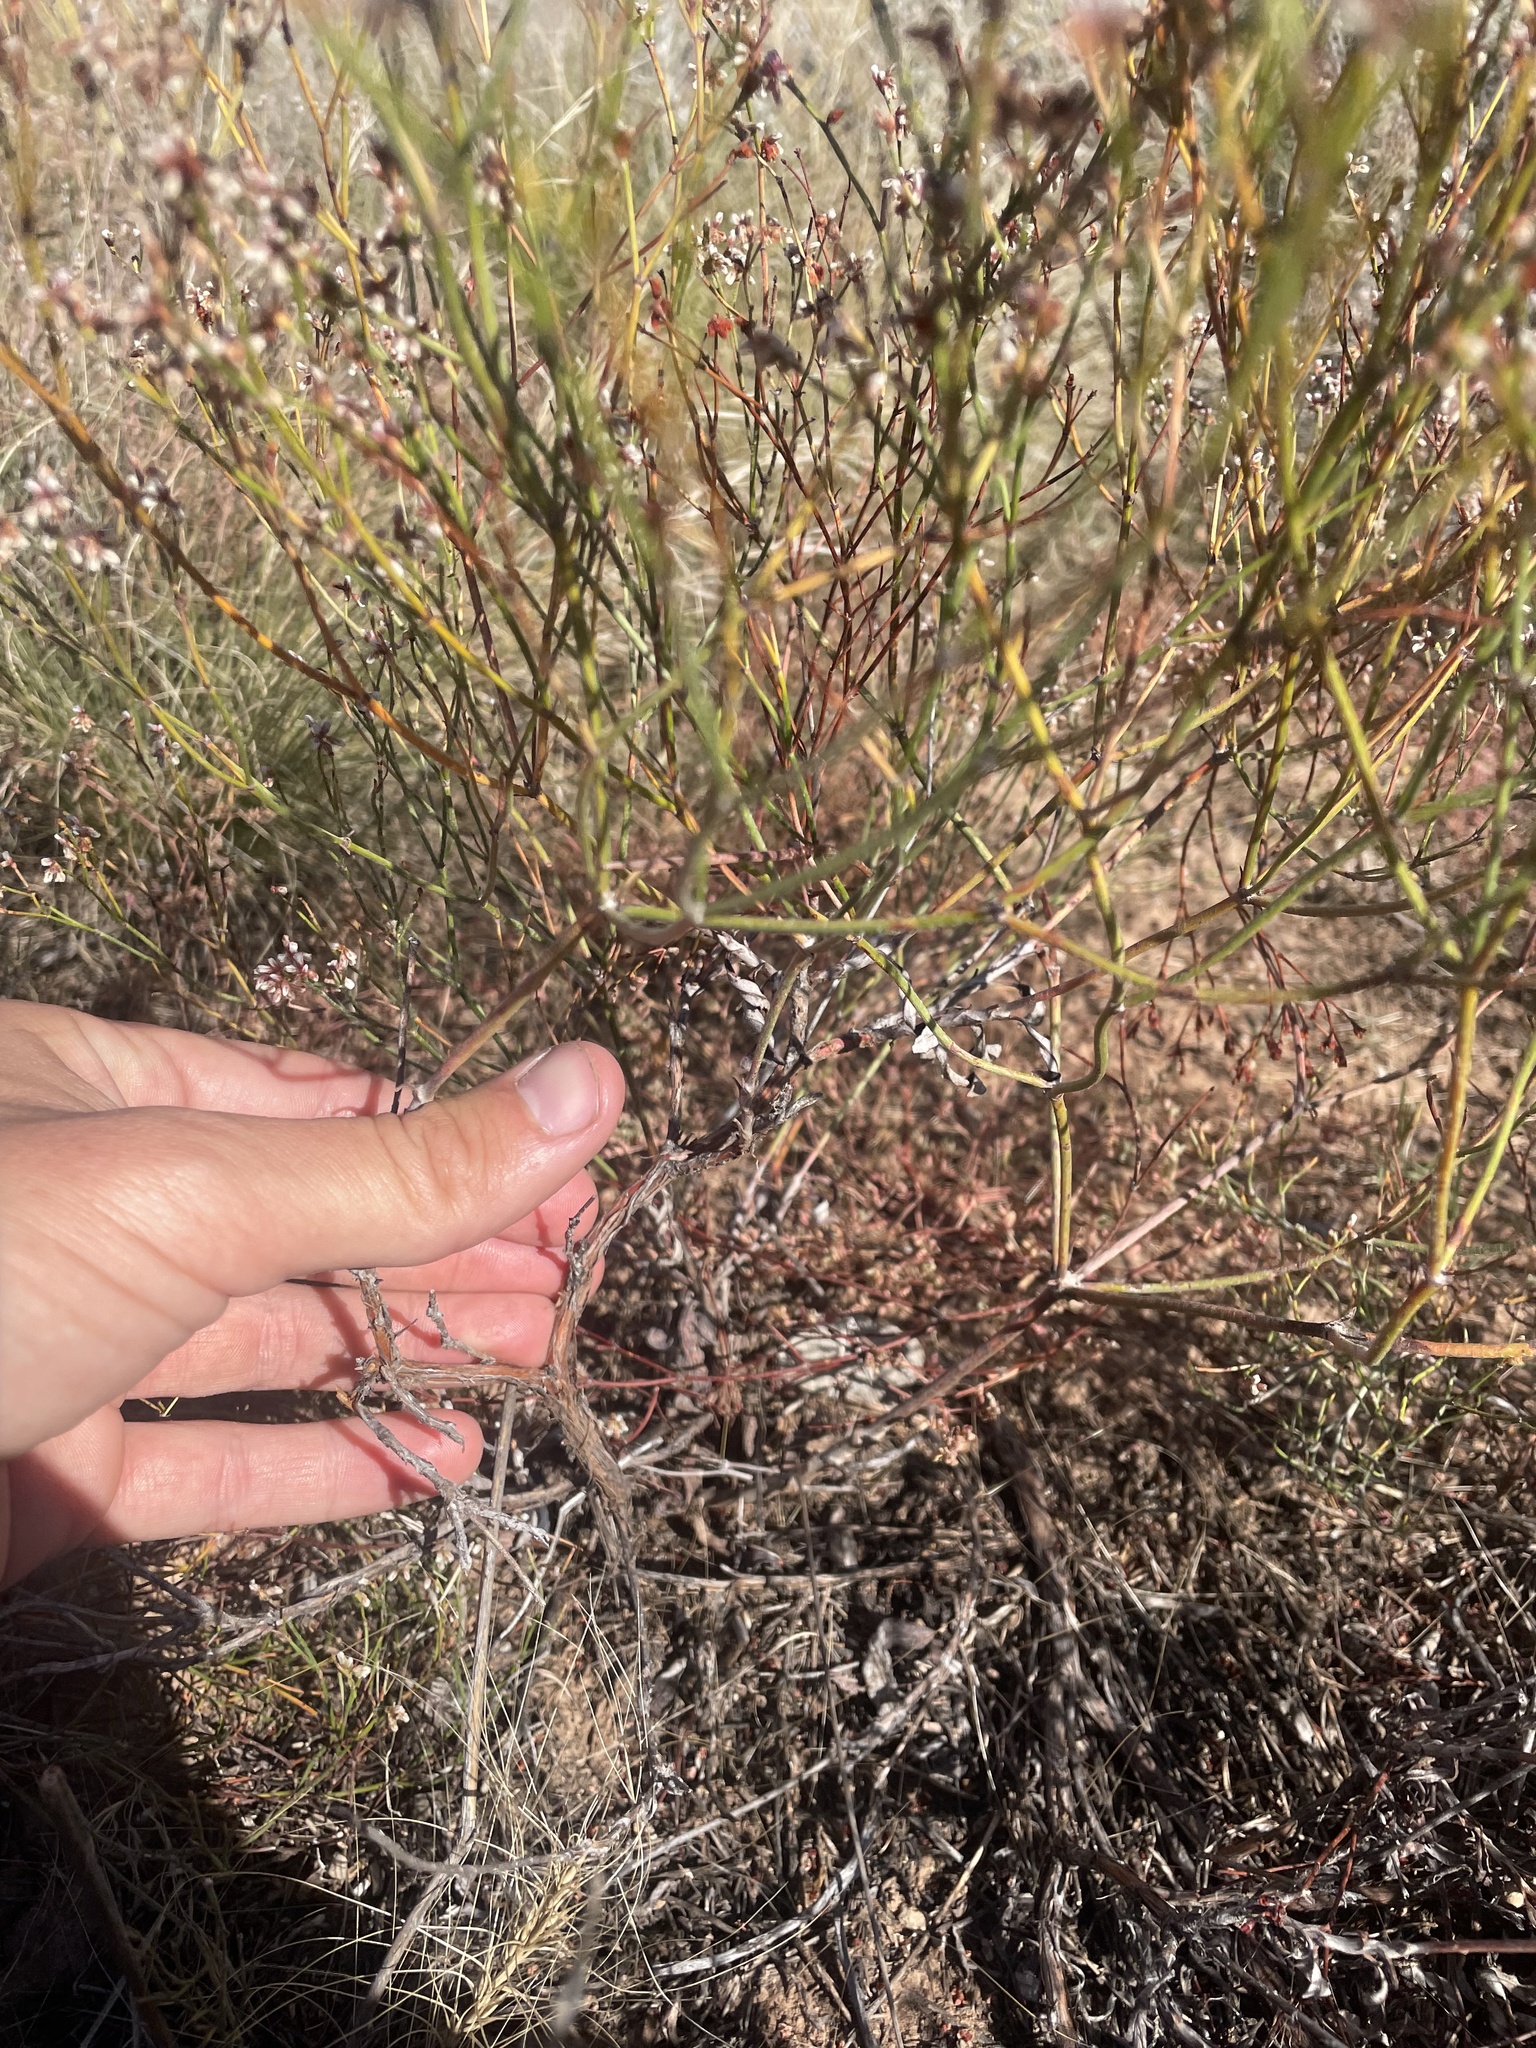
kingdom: Plantae
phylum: Tracheophyta
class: Magnoliopsida
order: Caryophyllales
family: Polygonaceae
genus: Eriogonum
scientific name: Eriogonum effusum
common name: Spreading wild buckwheat
